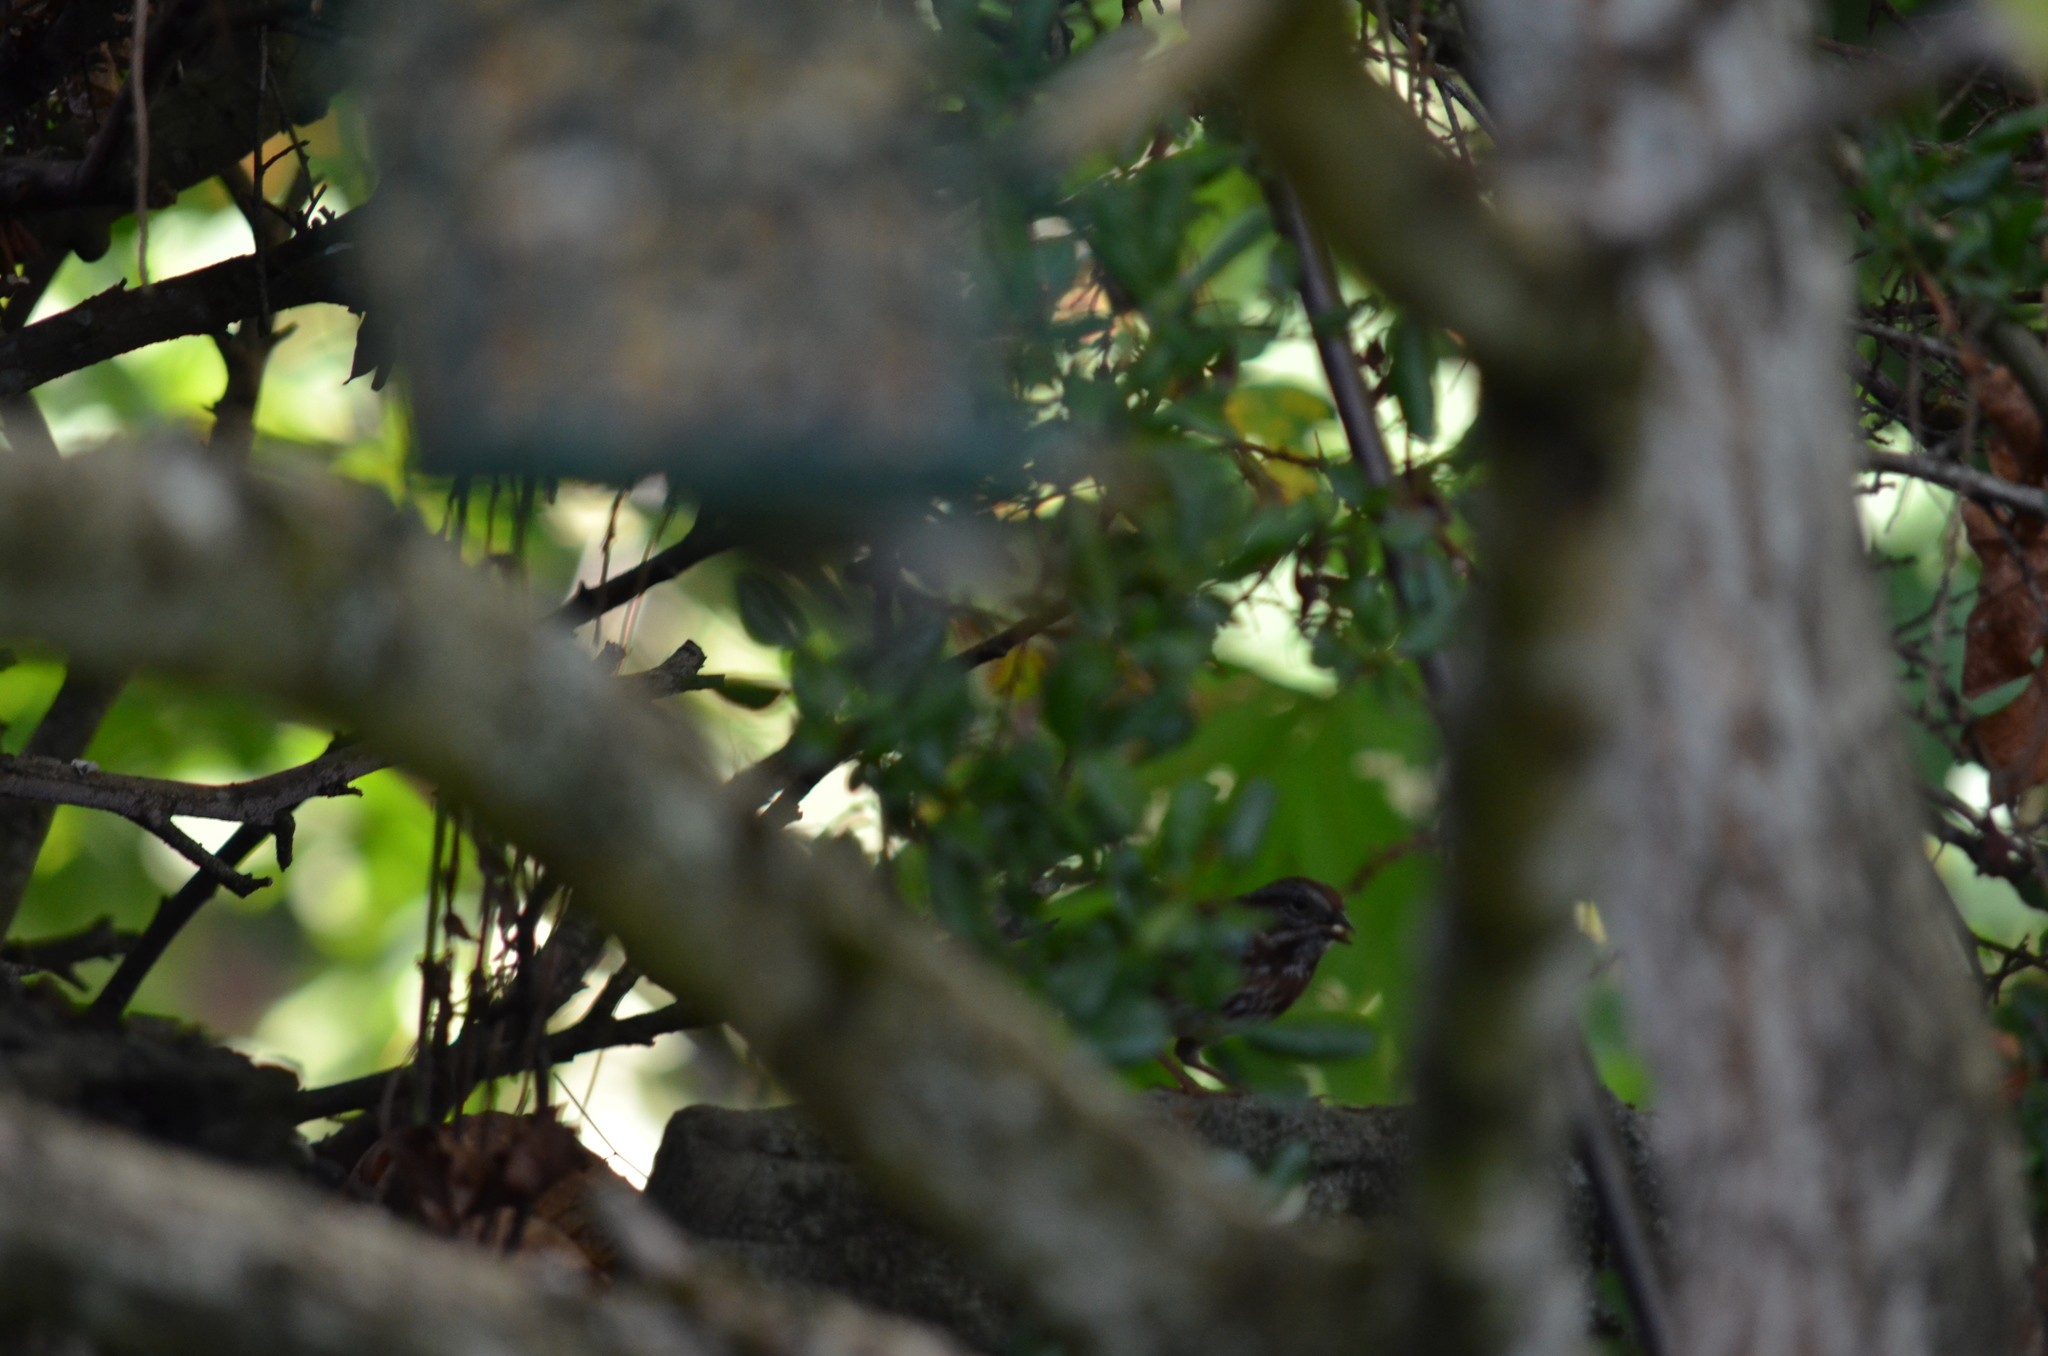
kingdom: Animalia
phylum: Chordata
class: Aves
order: Passeriformes
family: Passerellidae
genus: Melospiza
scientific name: Melospiza melodia
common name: Song sparrow
